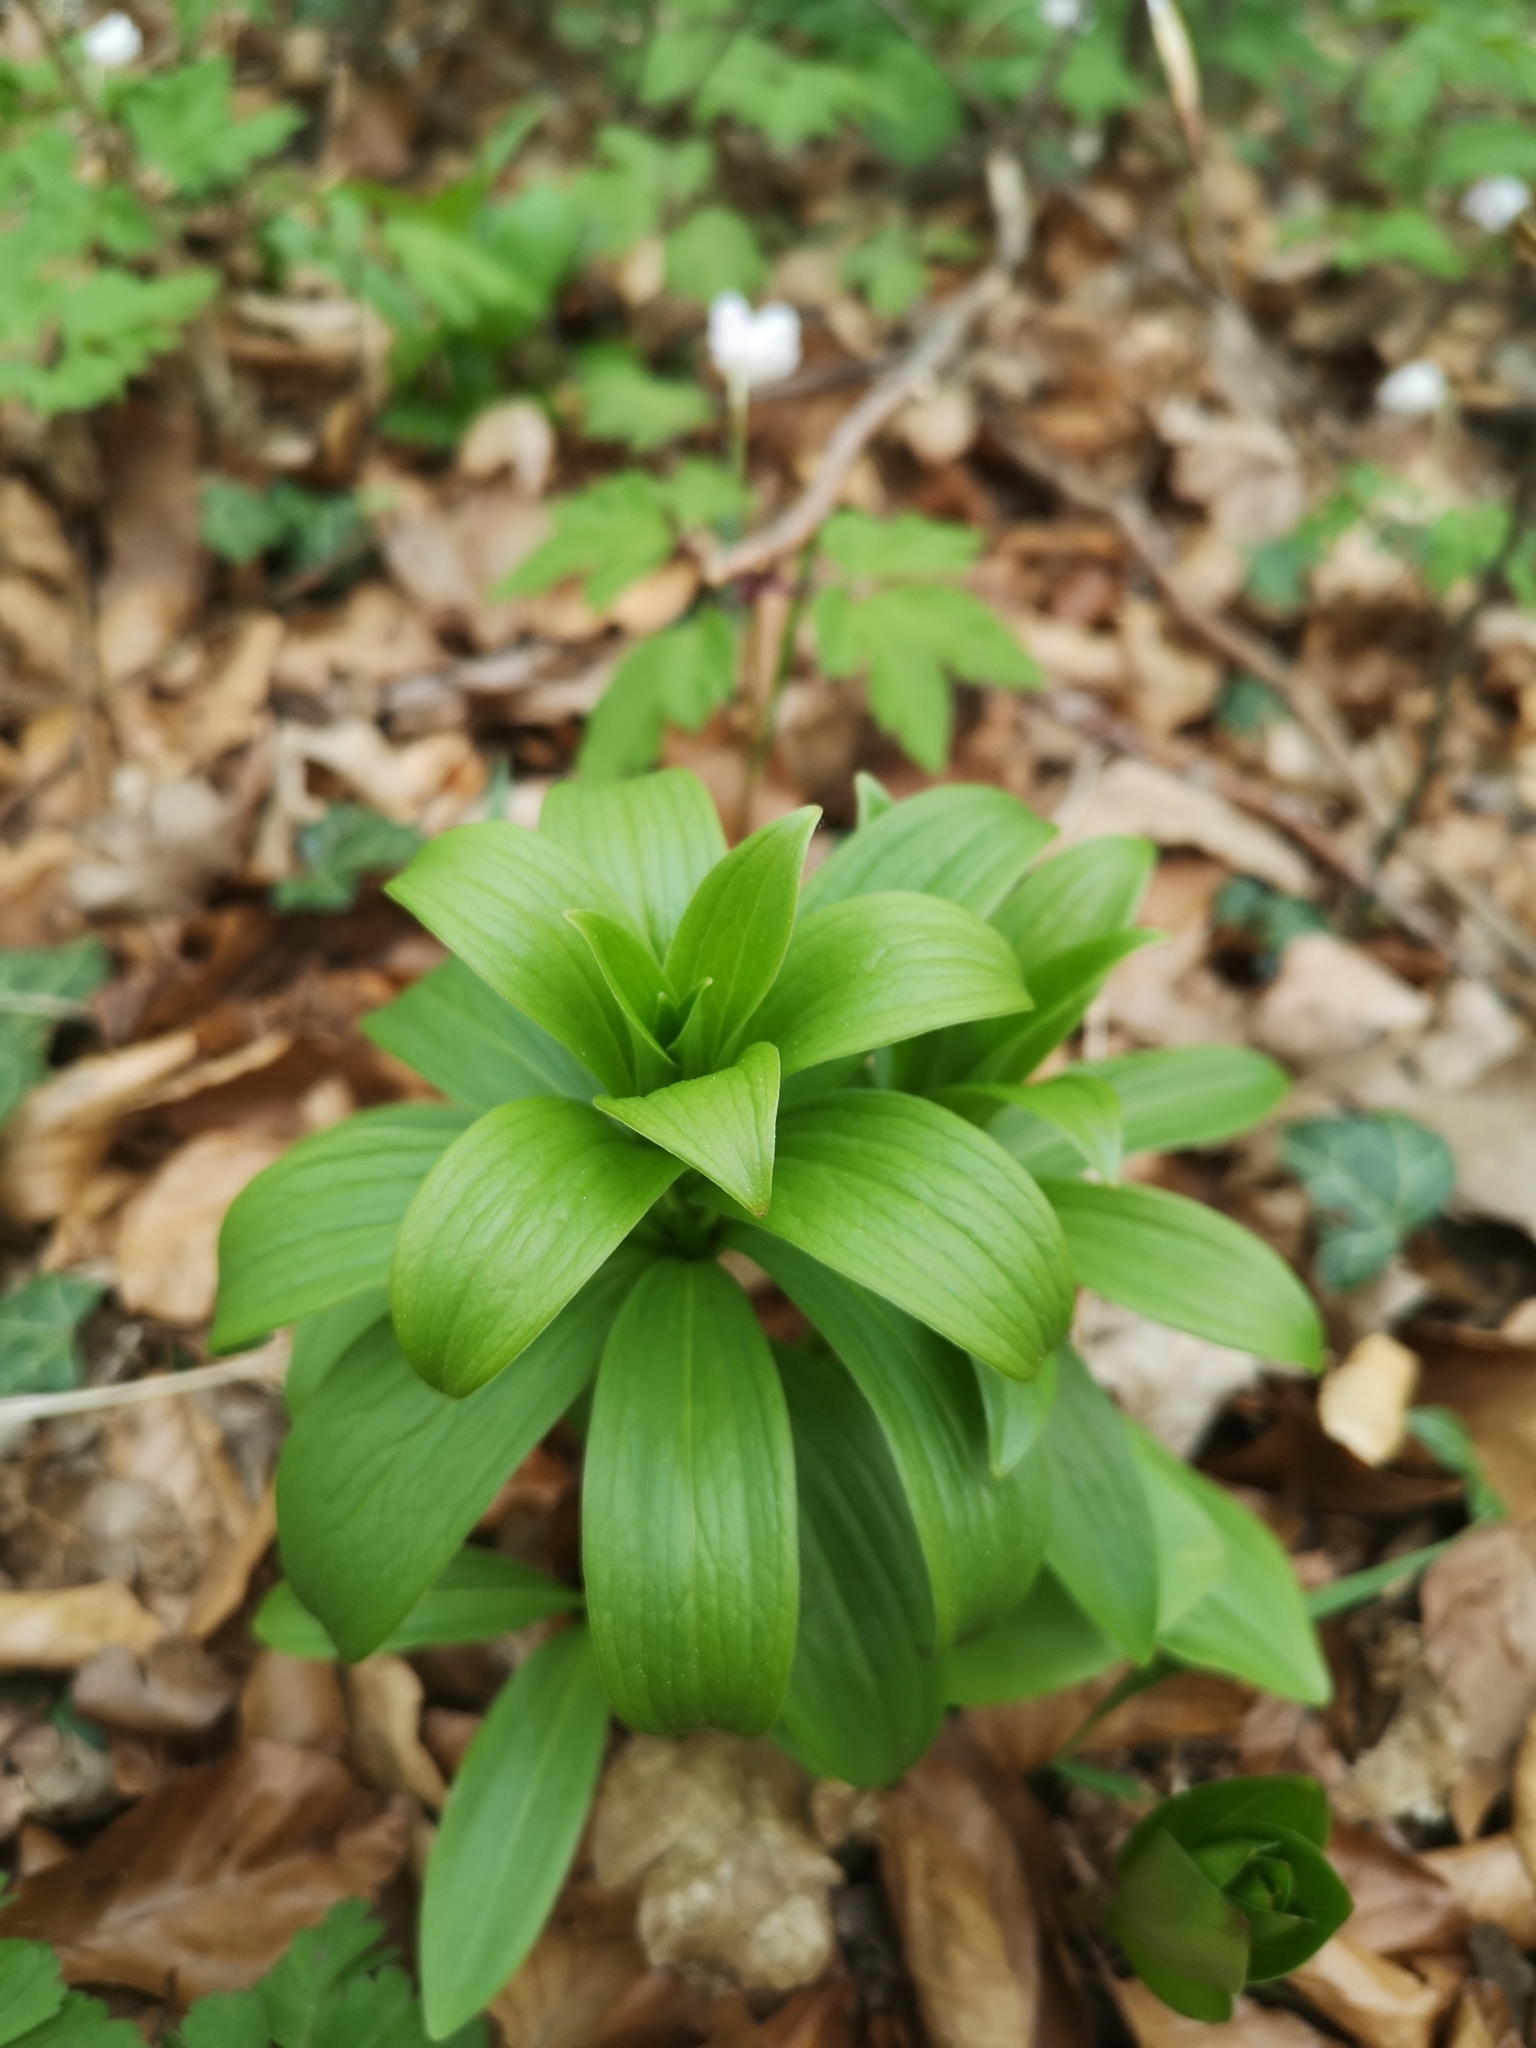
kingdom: Plantae
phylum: Tracheophyta
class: Liliopsida
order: Liliales
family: Liliaceae
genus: Lilium
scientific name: Lilium martagon
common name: Martagon lily
